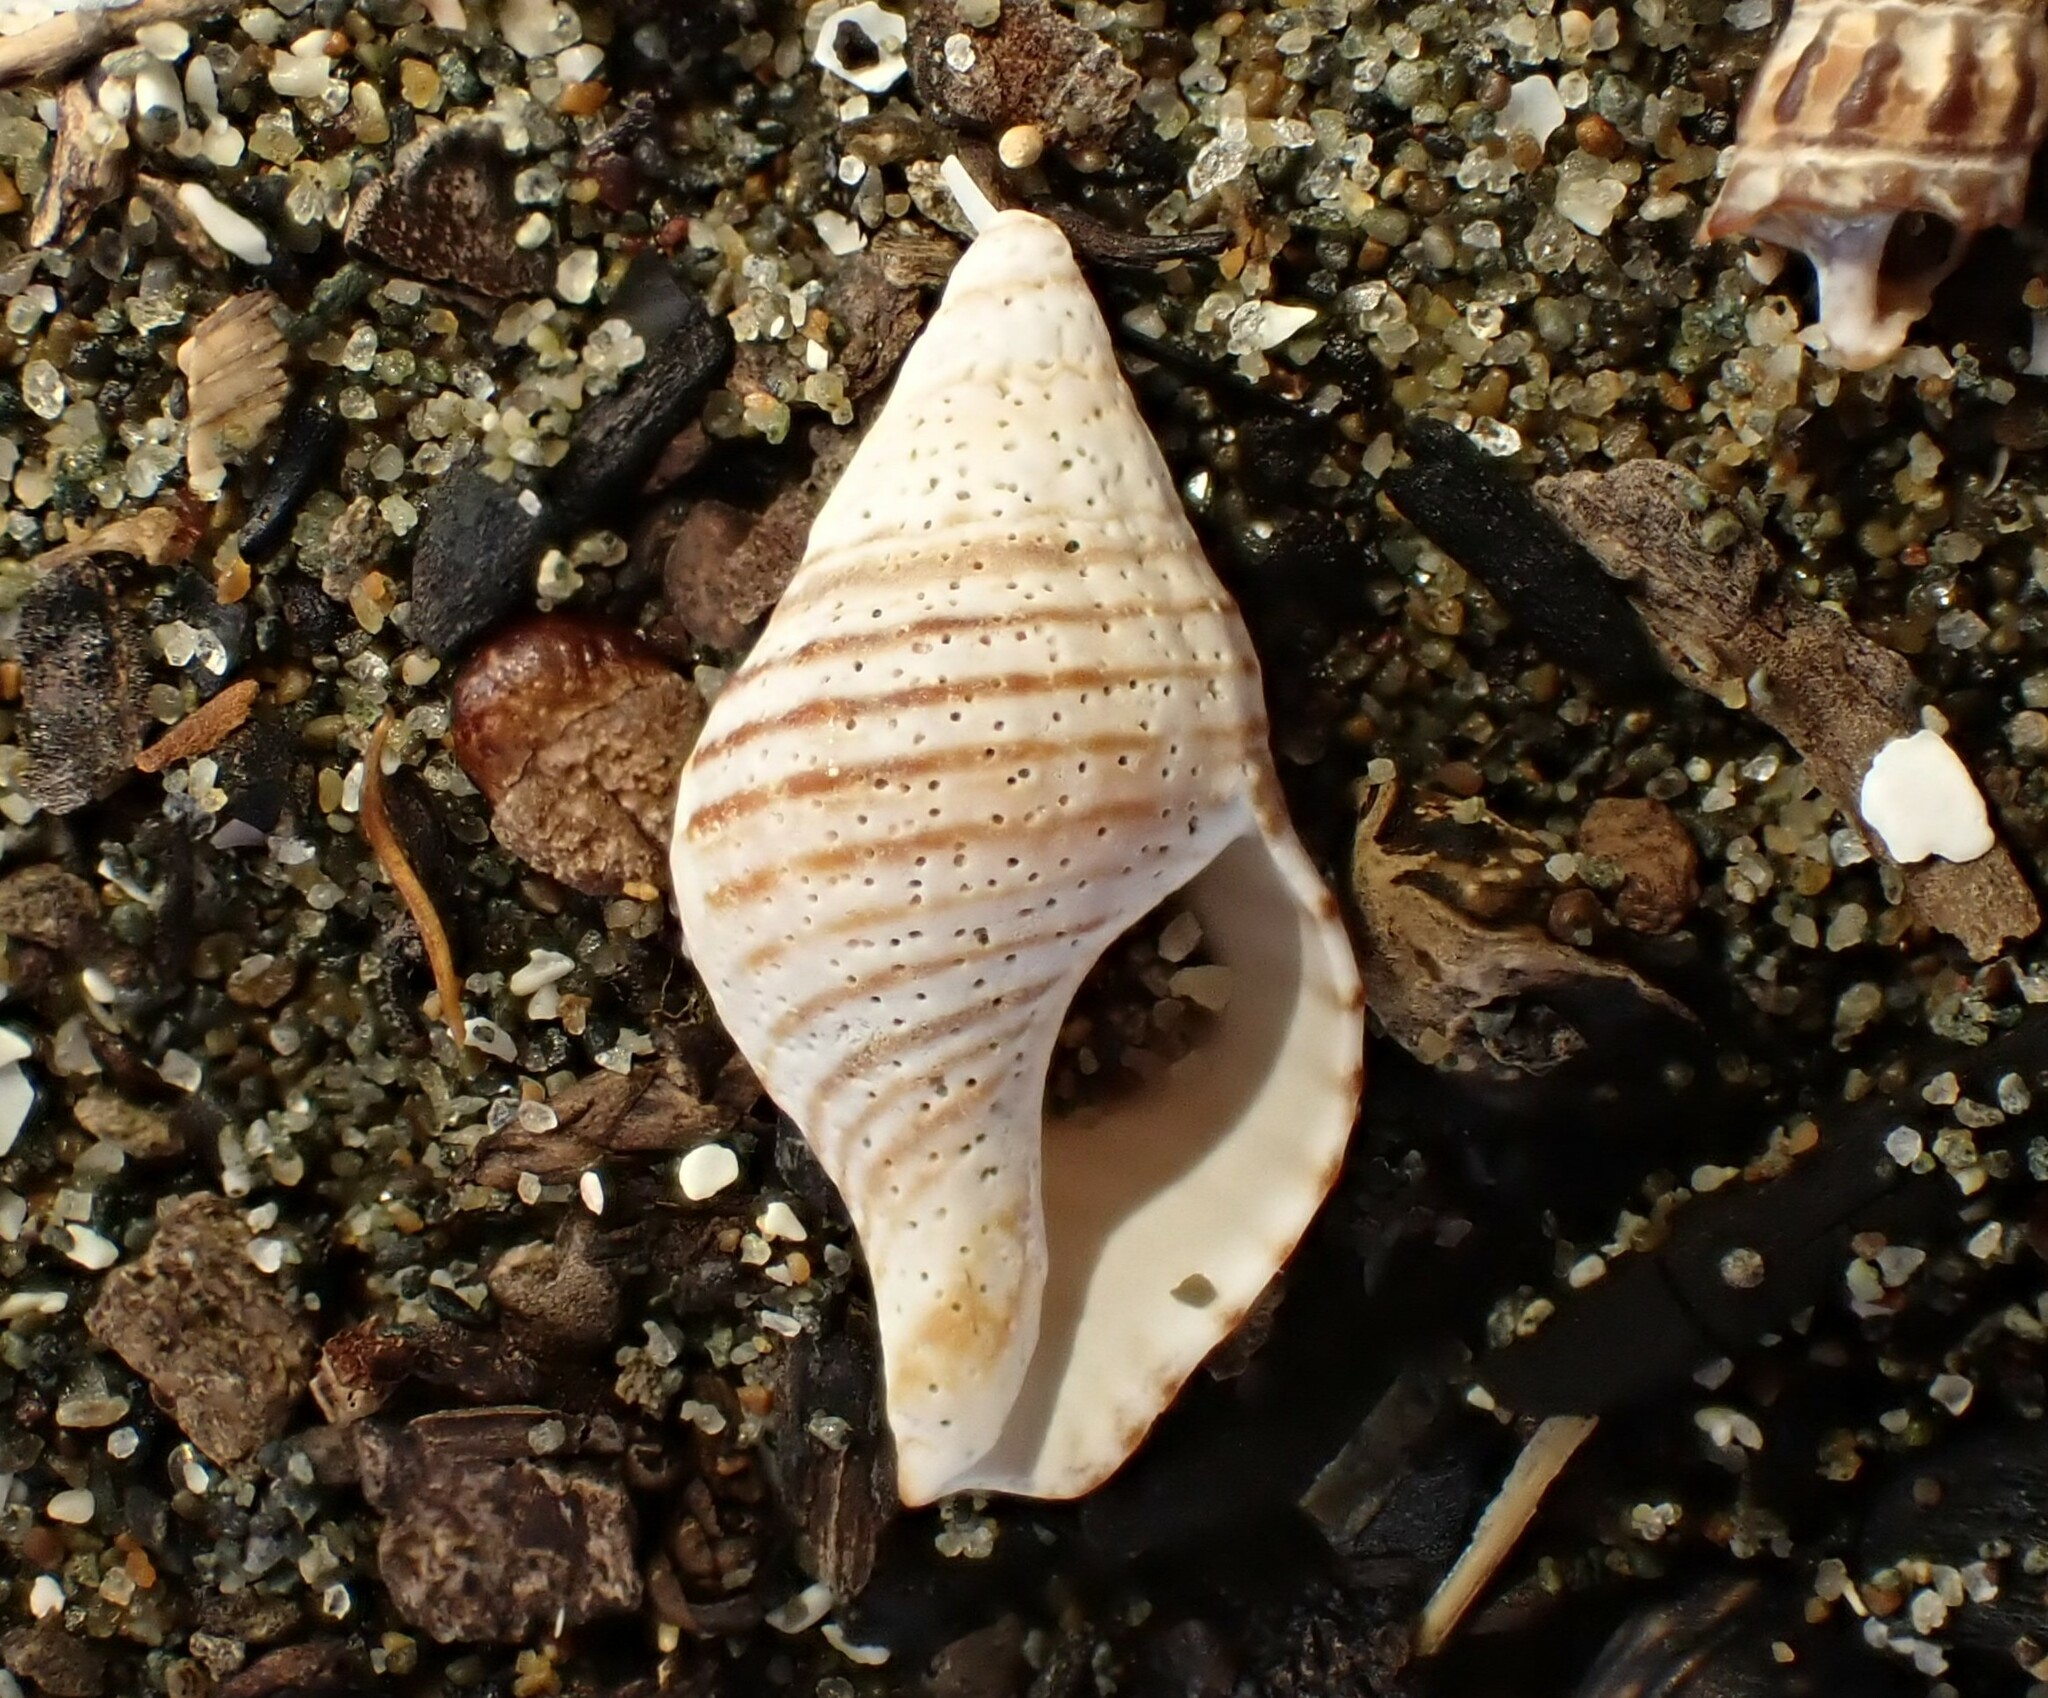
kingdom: Animalia
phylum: Mollusca
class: Gastropoda
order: Neogastropoda
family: Tudiclidae
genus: Buccinulum
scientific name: Buccinulum linea
